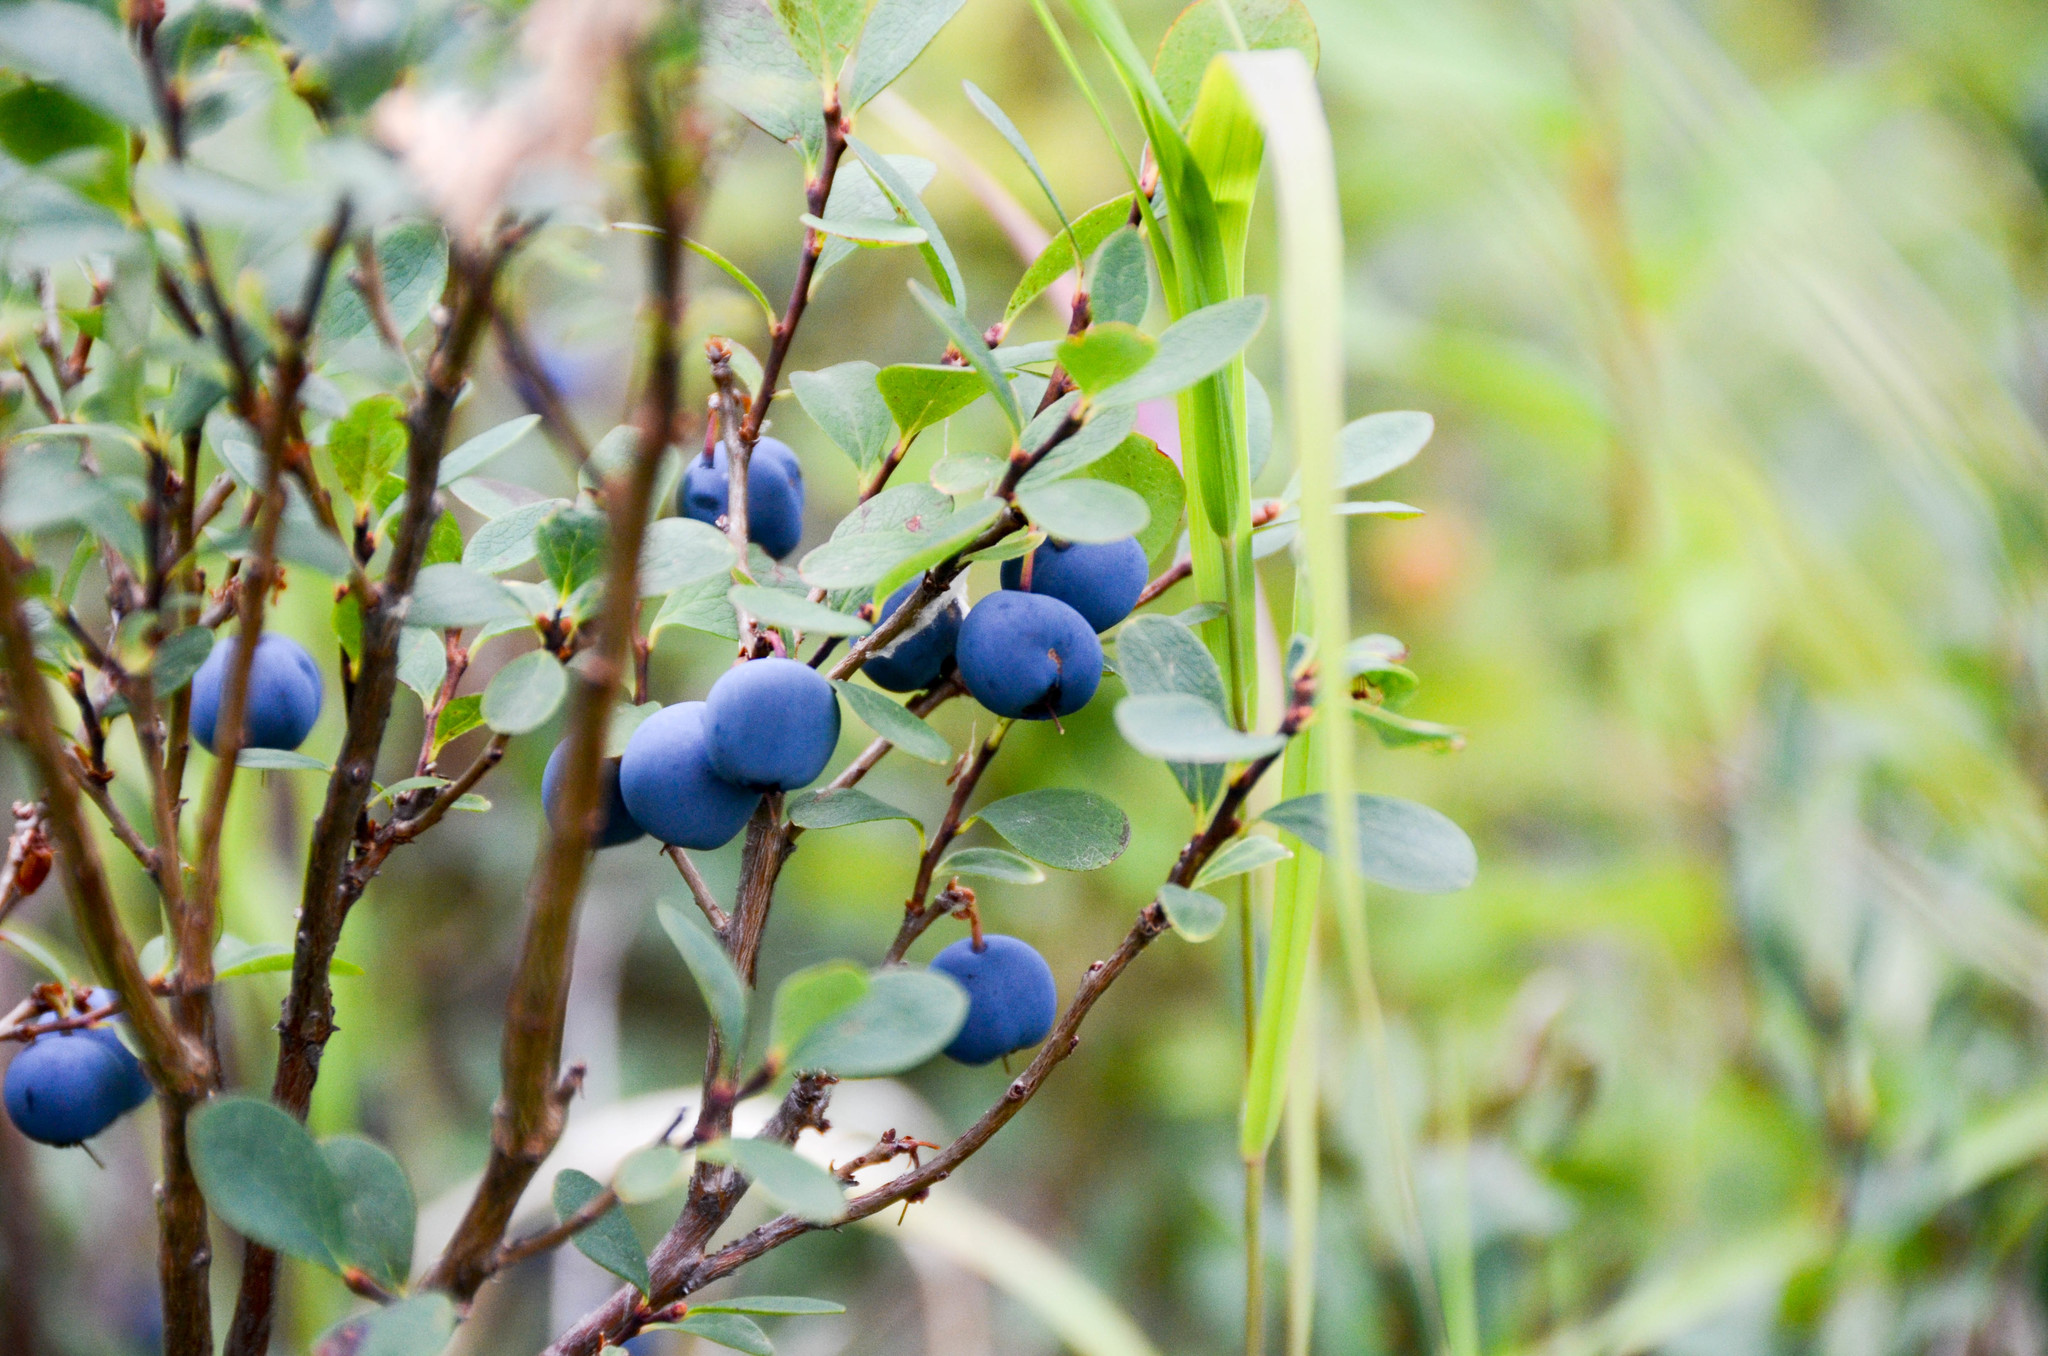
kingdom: Plantae
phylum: Tracheophyta
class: Magnoliopsida
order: Ericales
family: Ericaceae
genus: Vaccinium
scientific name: Vaccinium uliginosum
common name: Bog bilberry
